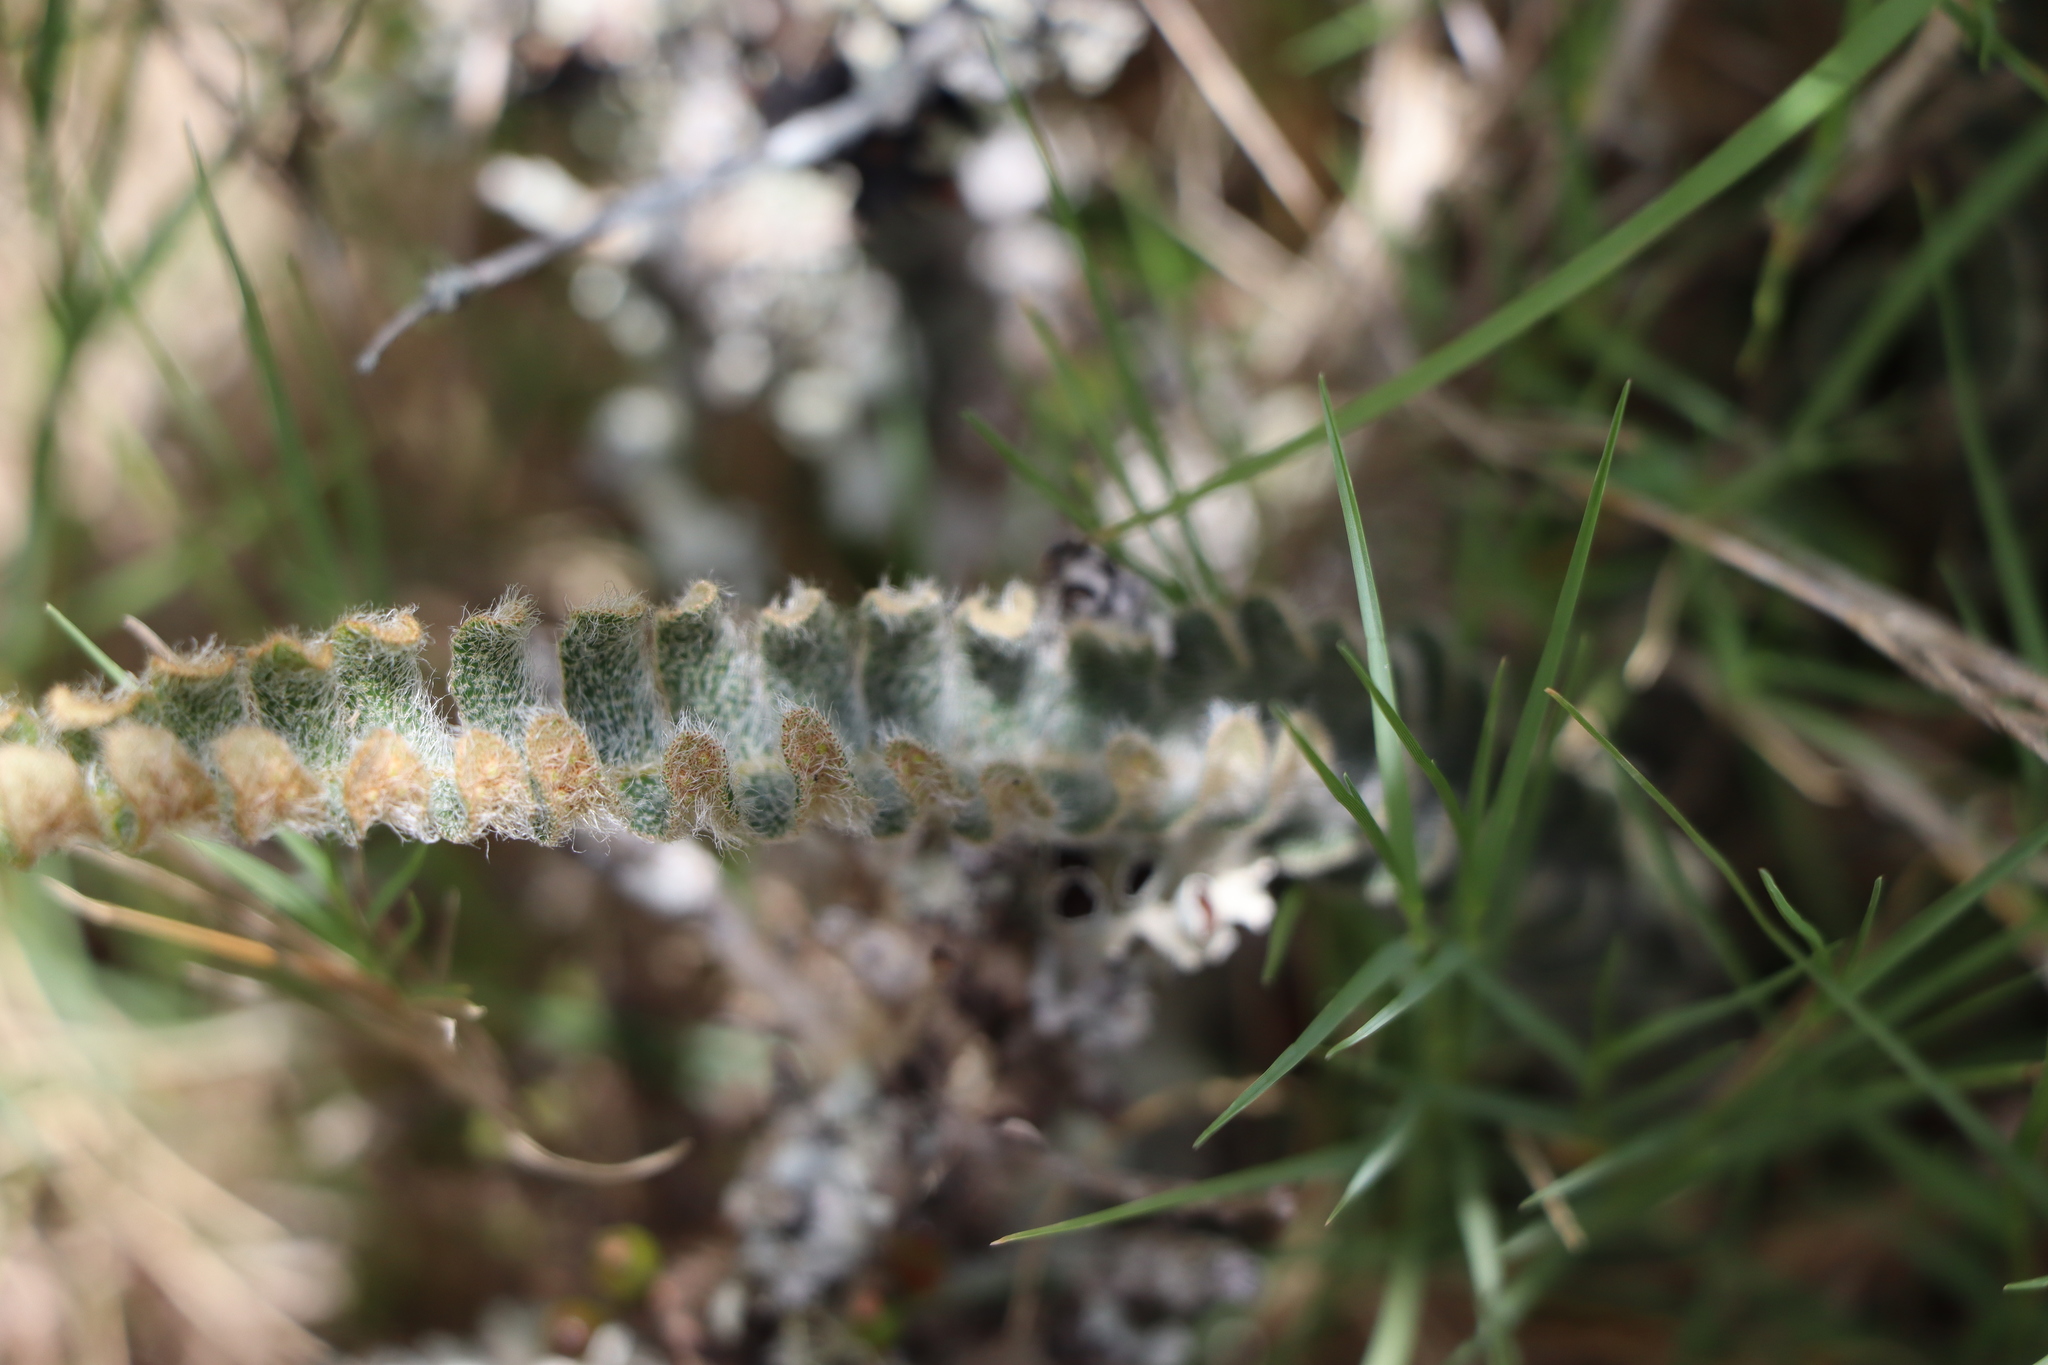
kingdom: Plantae
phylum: Tracheophyta
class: Polypodiopsida
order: Polypodiales
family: Polypodiaceae
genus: Pleopeltis
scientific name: Pleopeltis lepidopteris
